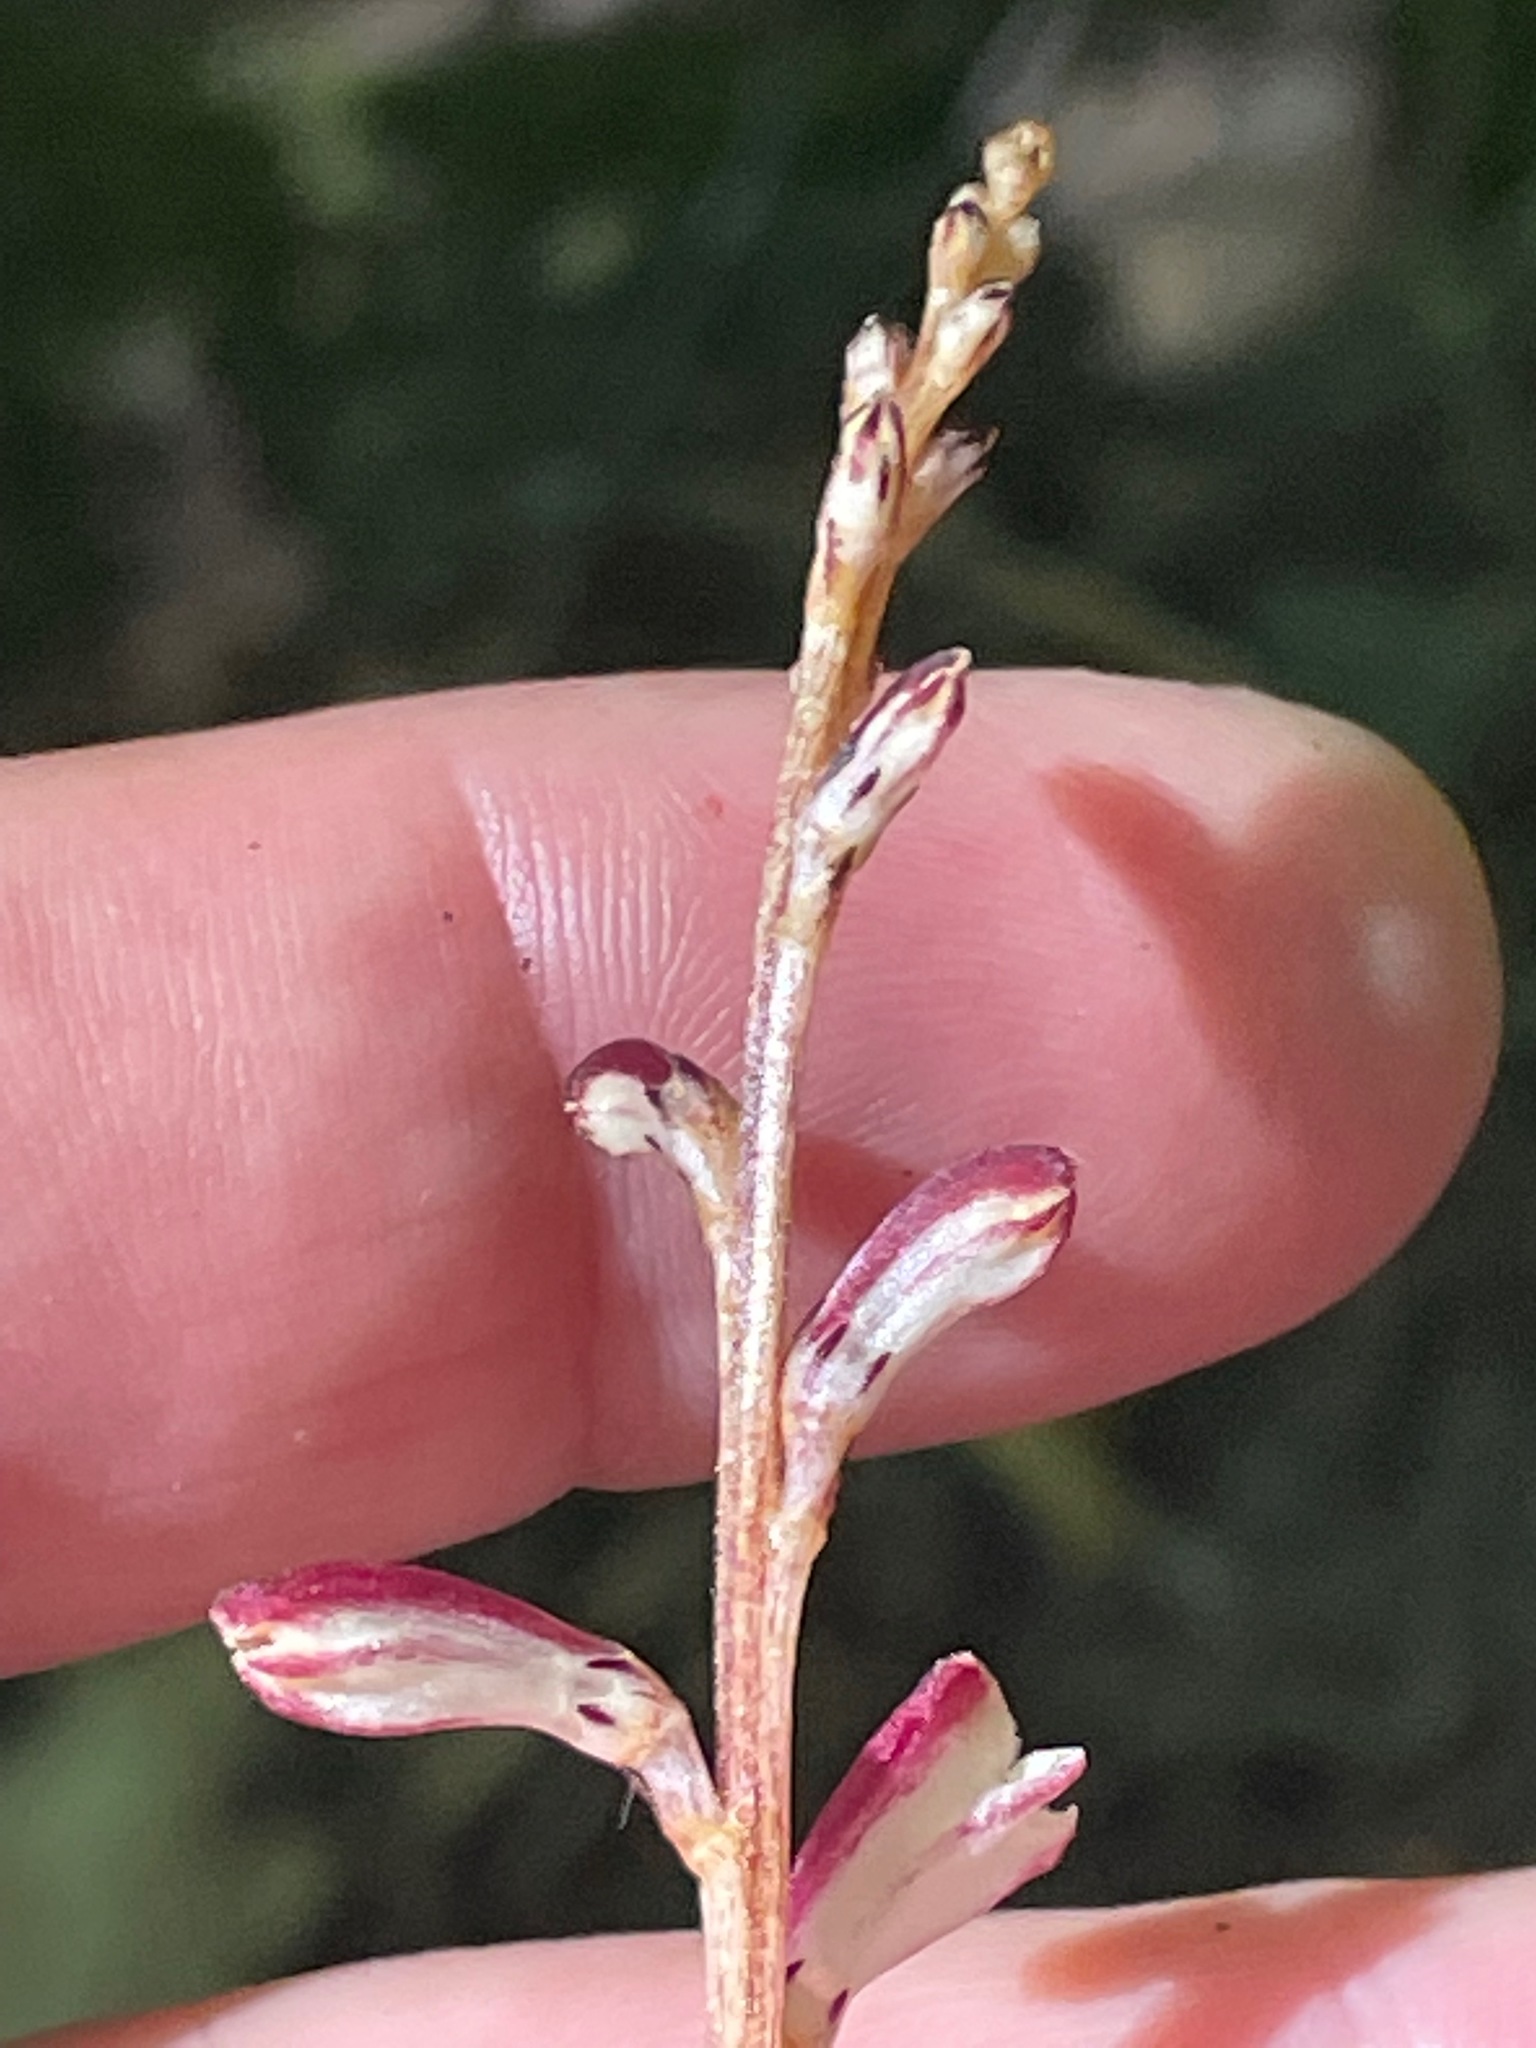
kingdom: Plantae
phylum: Tracheophyta
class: Magnoliopsida
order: Lamiales
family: Orobanchaceae
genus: Epifagus
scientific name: Epifagus virginiana
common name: Beechdrops
